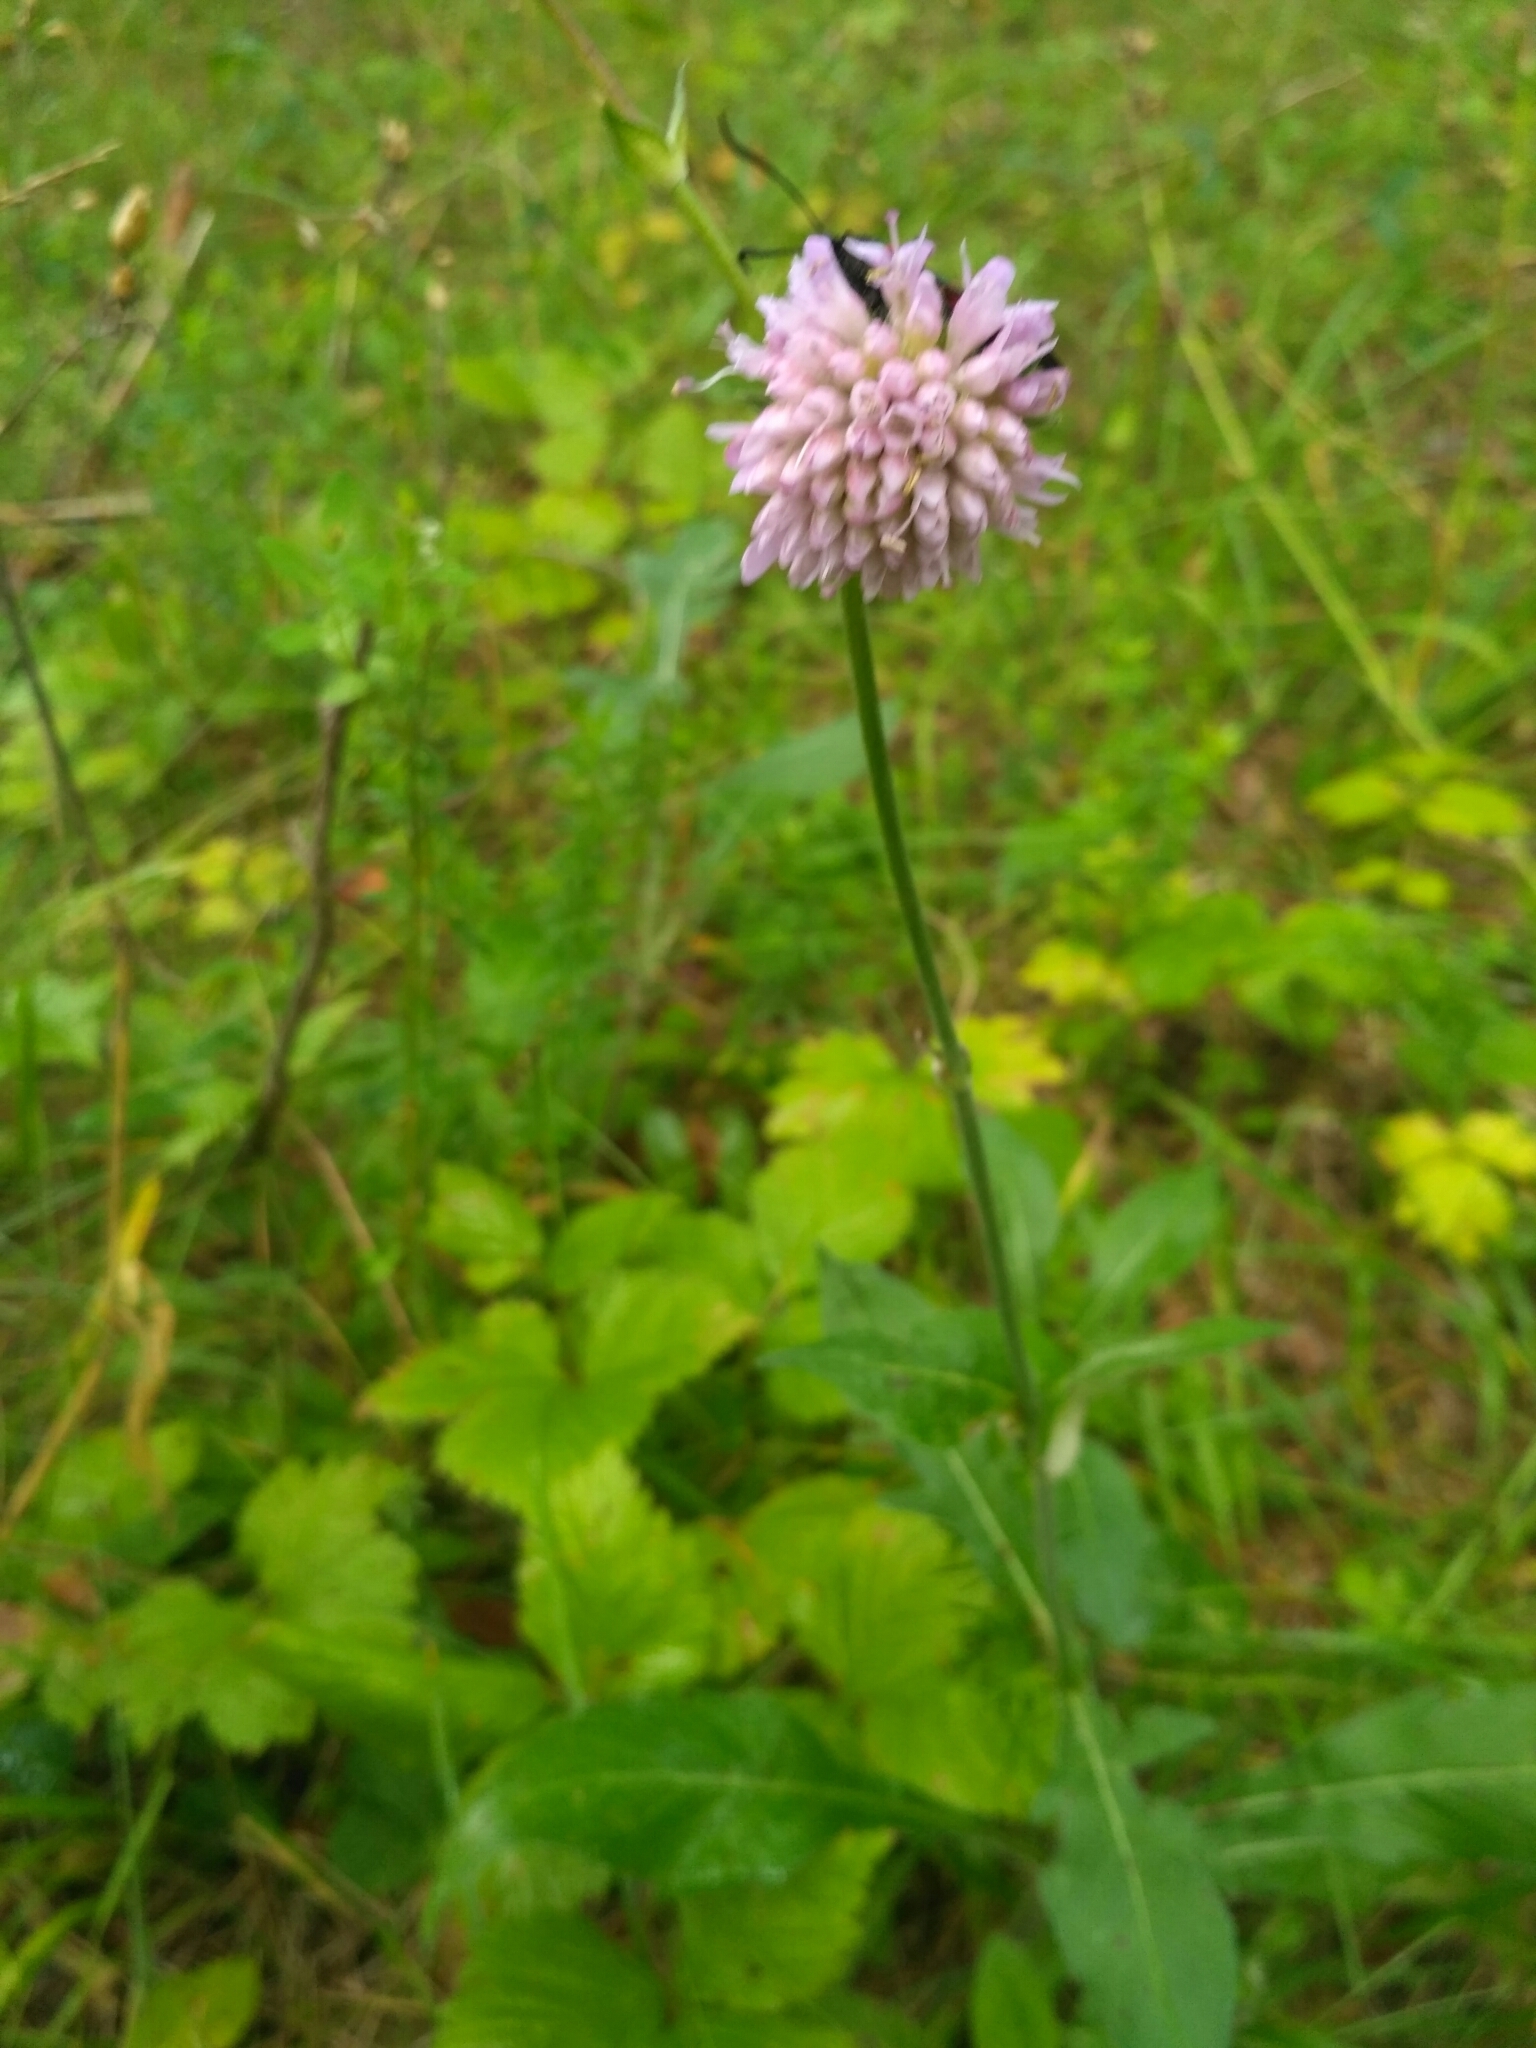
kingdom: Plantae
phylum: Tracheophyta
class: Magnoliopsida
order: Dipsacales
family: Caprifoliaceae
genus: Knautia
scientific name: Knautia arvensis
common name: Field scabiosa
